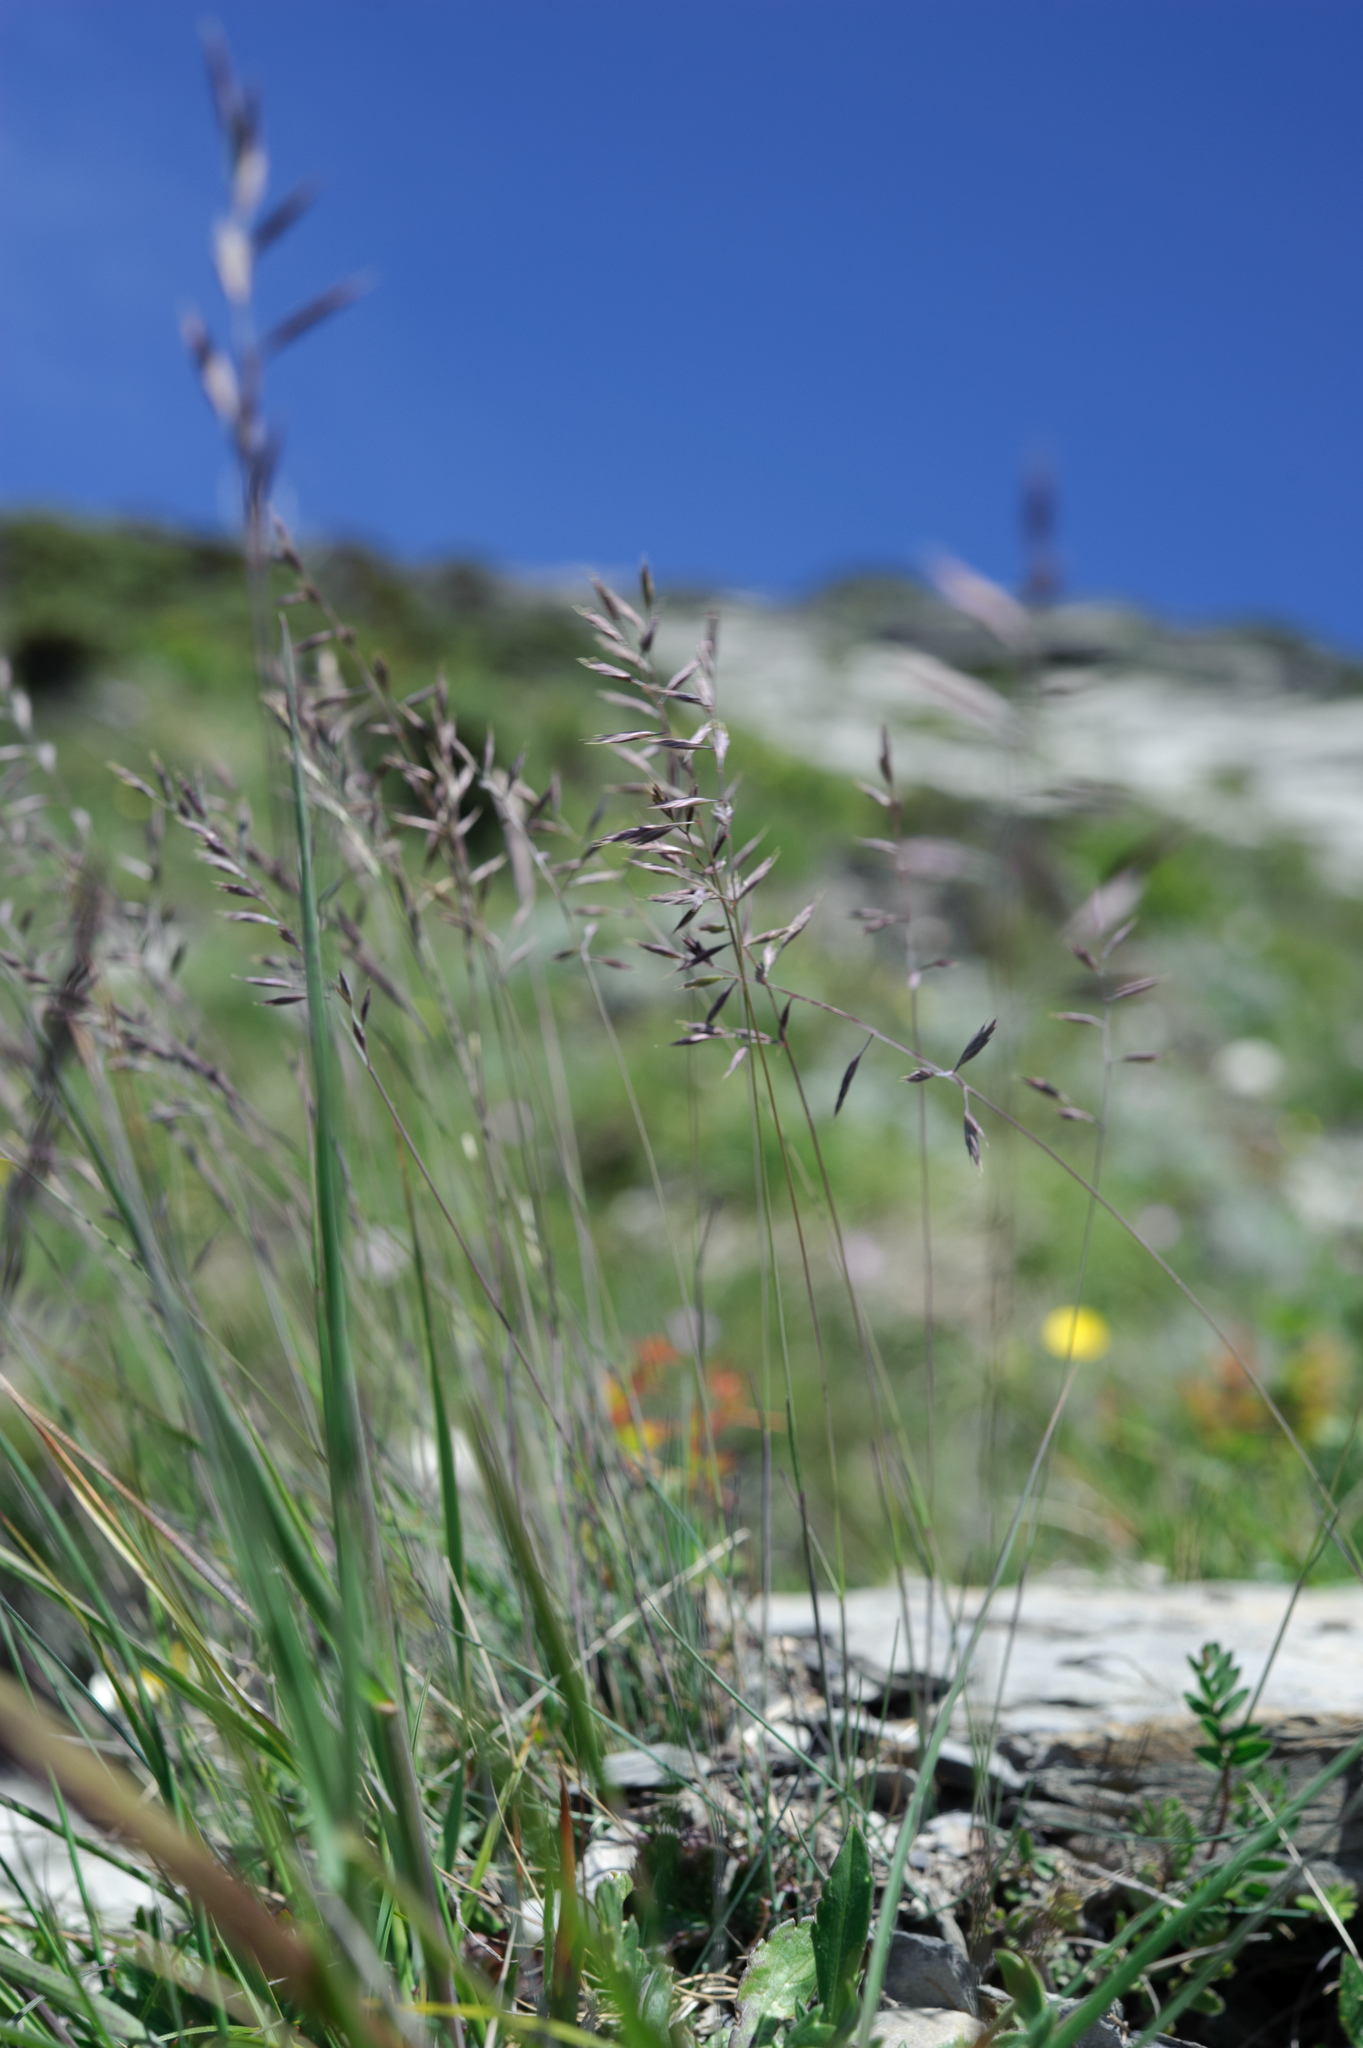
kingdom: Plantae
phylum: Tracheophyta
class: Liliopsida
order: Poales
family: Poaceae
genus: Festuca
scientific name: Festuca ovina
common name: Sheep fescue
